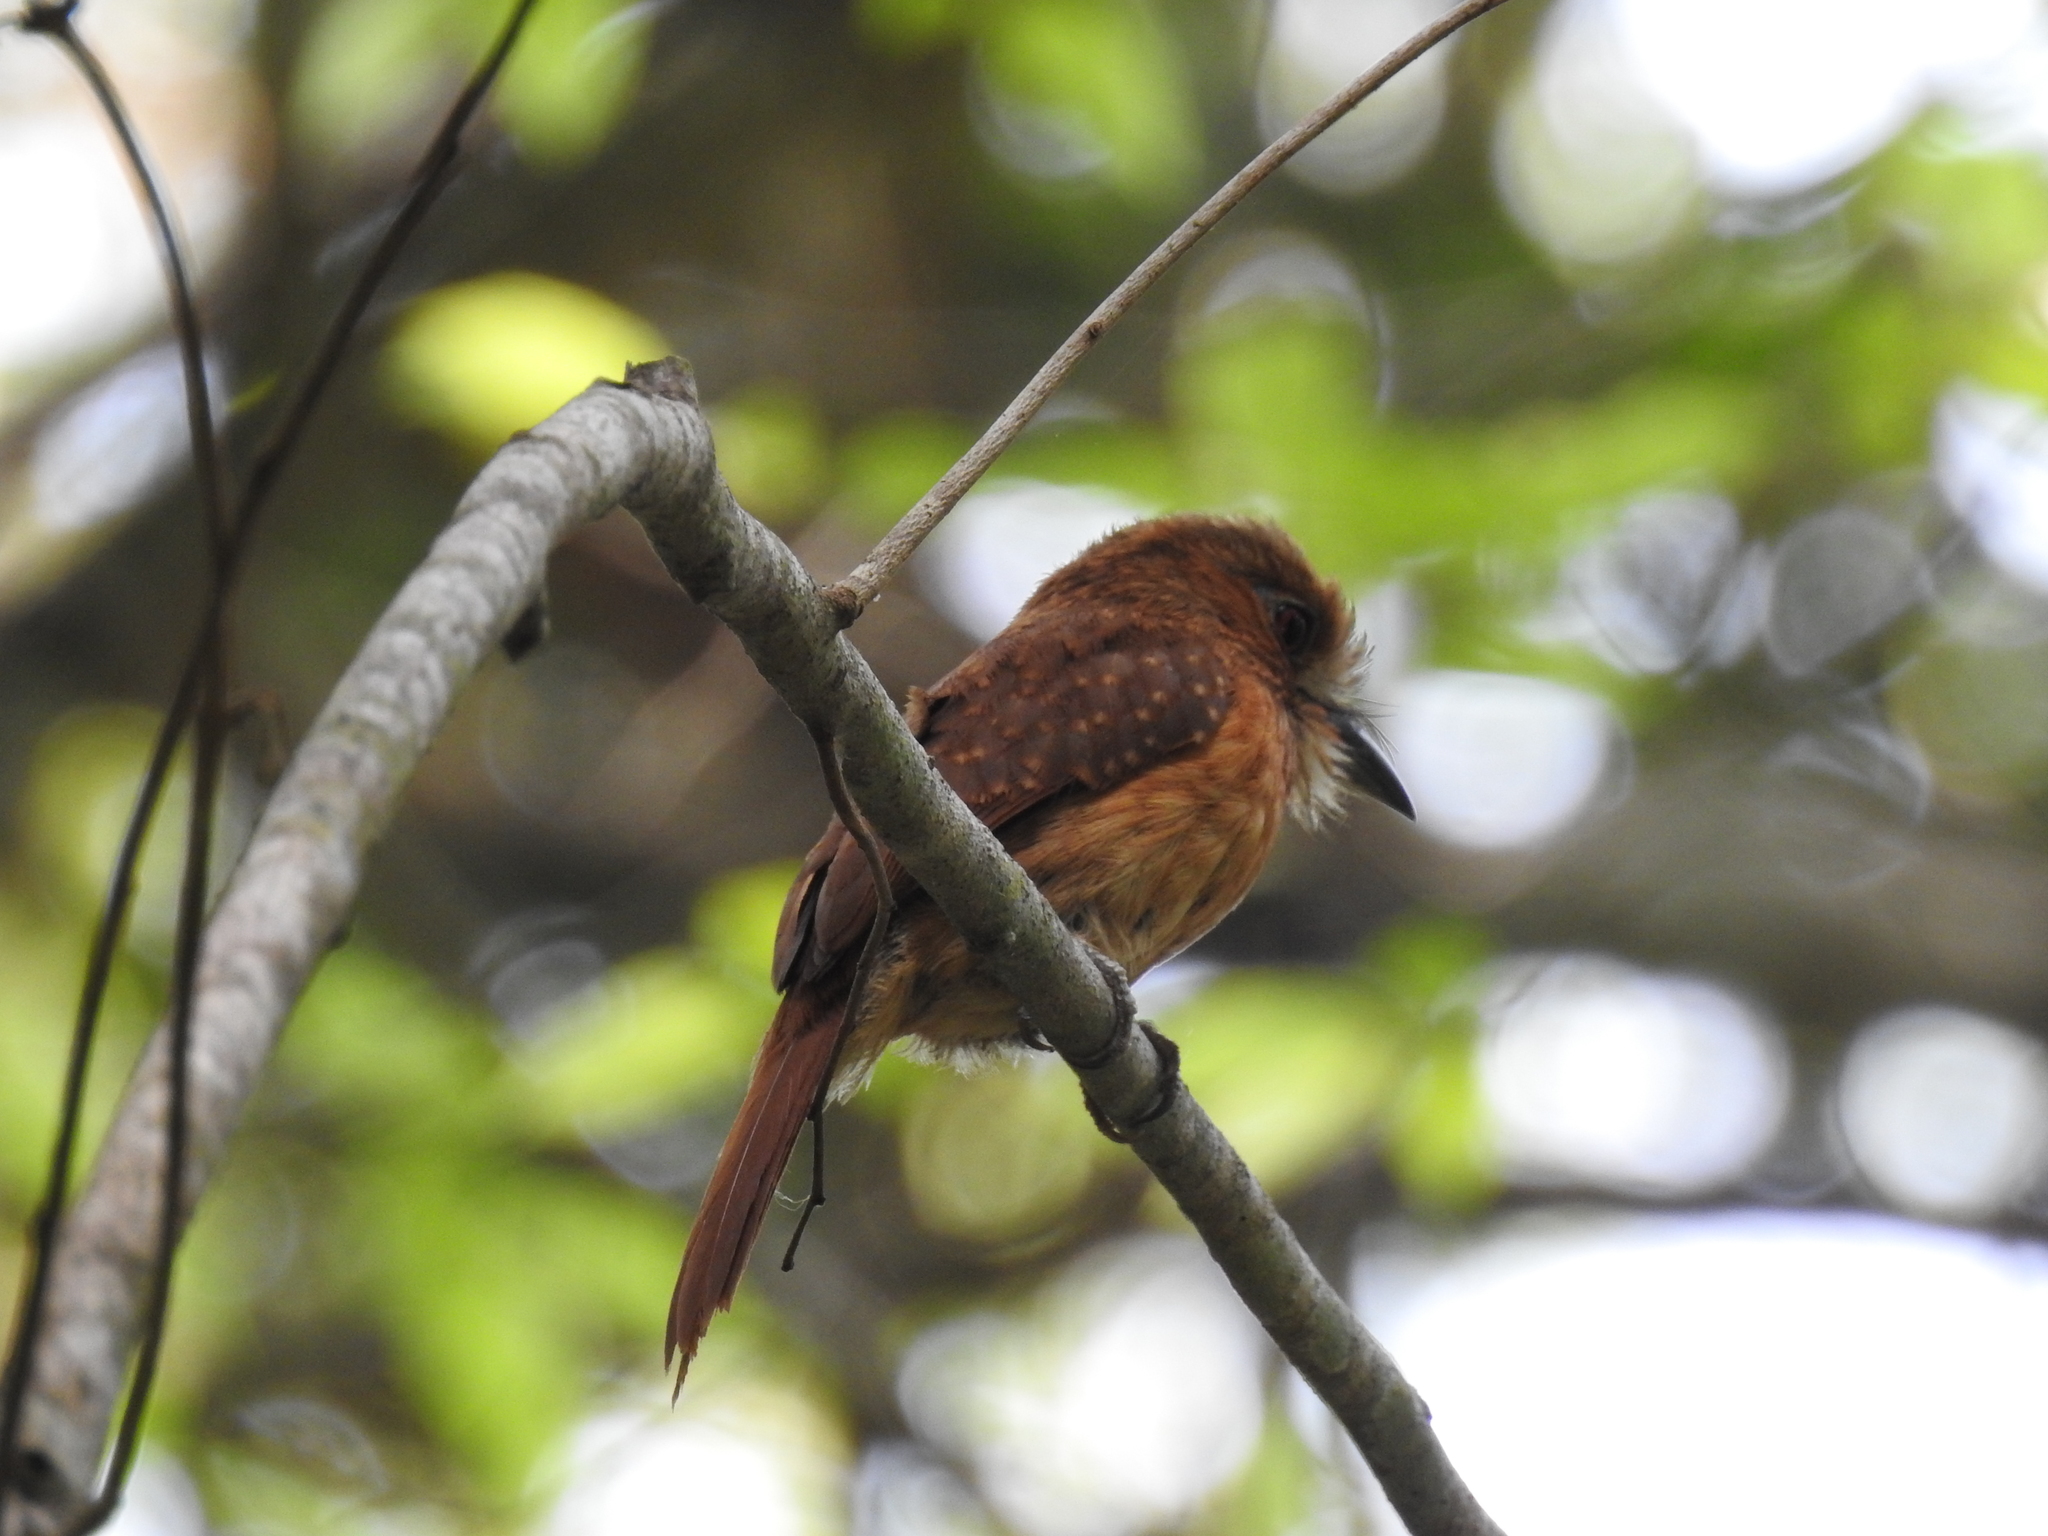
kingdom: Animalia
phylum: Chordata
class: Aves
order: Piciformes
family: Bucconidae
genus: Malacoptila
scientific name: Malacoptila panamensis
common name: White-whiskered puffbird
